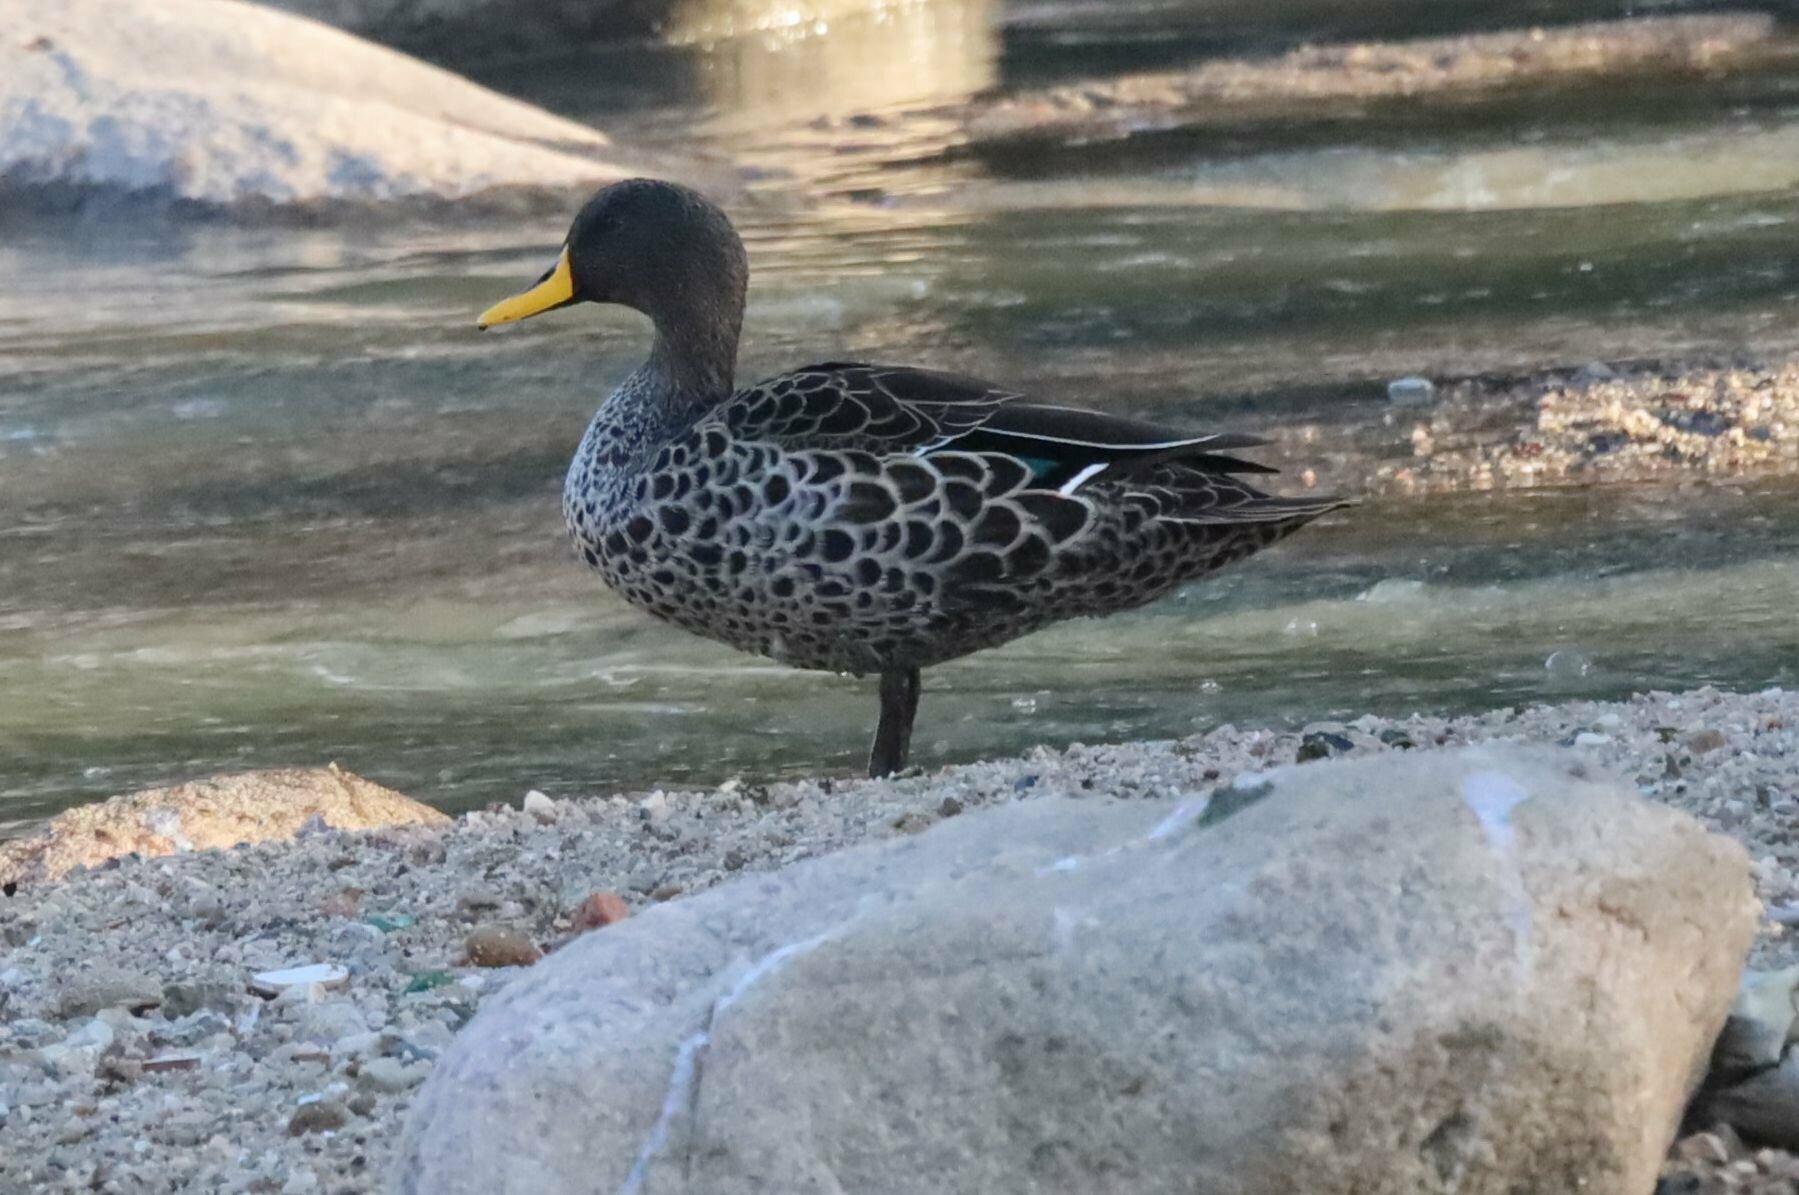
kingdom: Animalia
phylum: Chordata
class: Aves
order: Anseriformes
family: Anatidae
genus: Anas
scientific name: Anas undulata
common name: Yellow-billed duck
